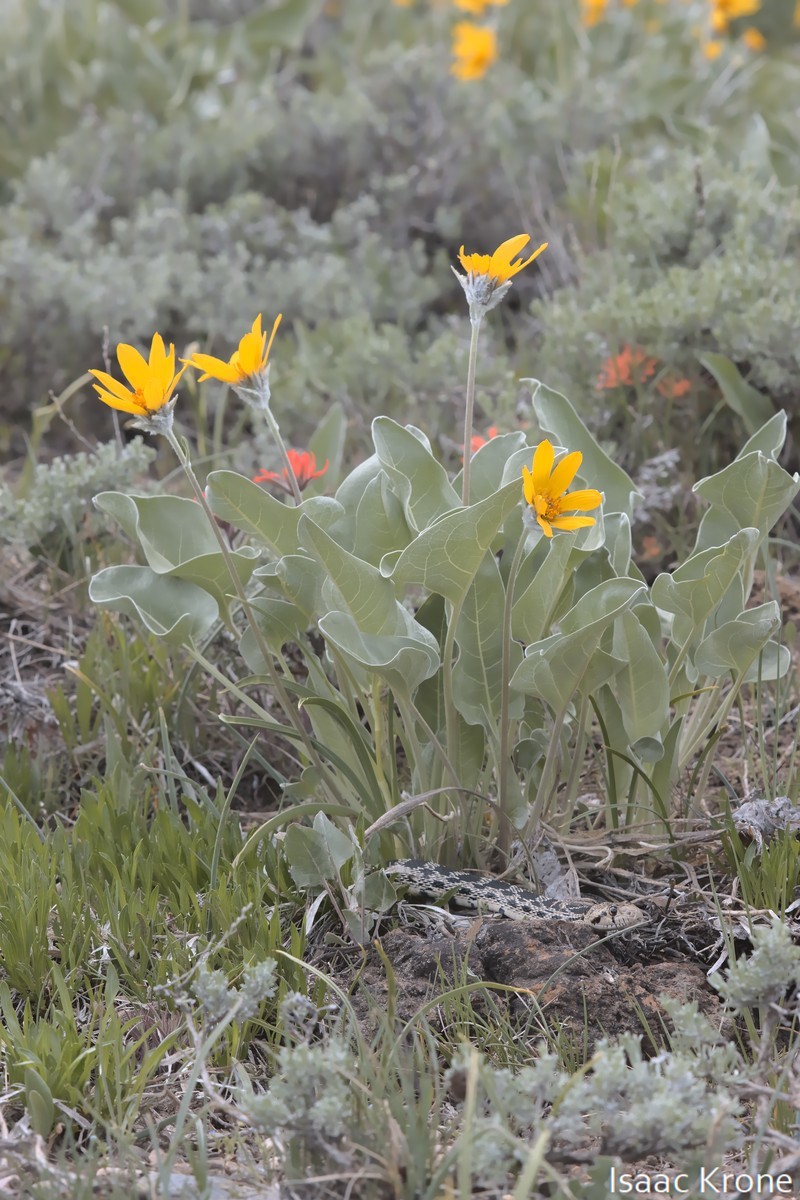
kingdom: Animalia
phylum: Chordata
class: Squamata
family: Colubridae
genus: Pituophis
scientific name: Pituophis catenifer
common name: Gopher snake
